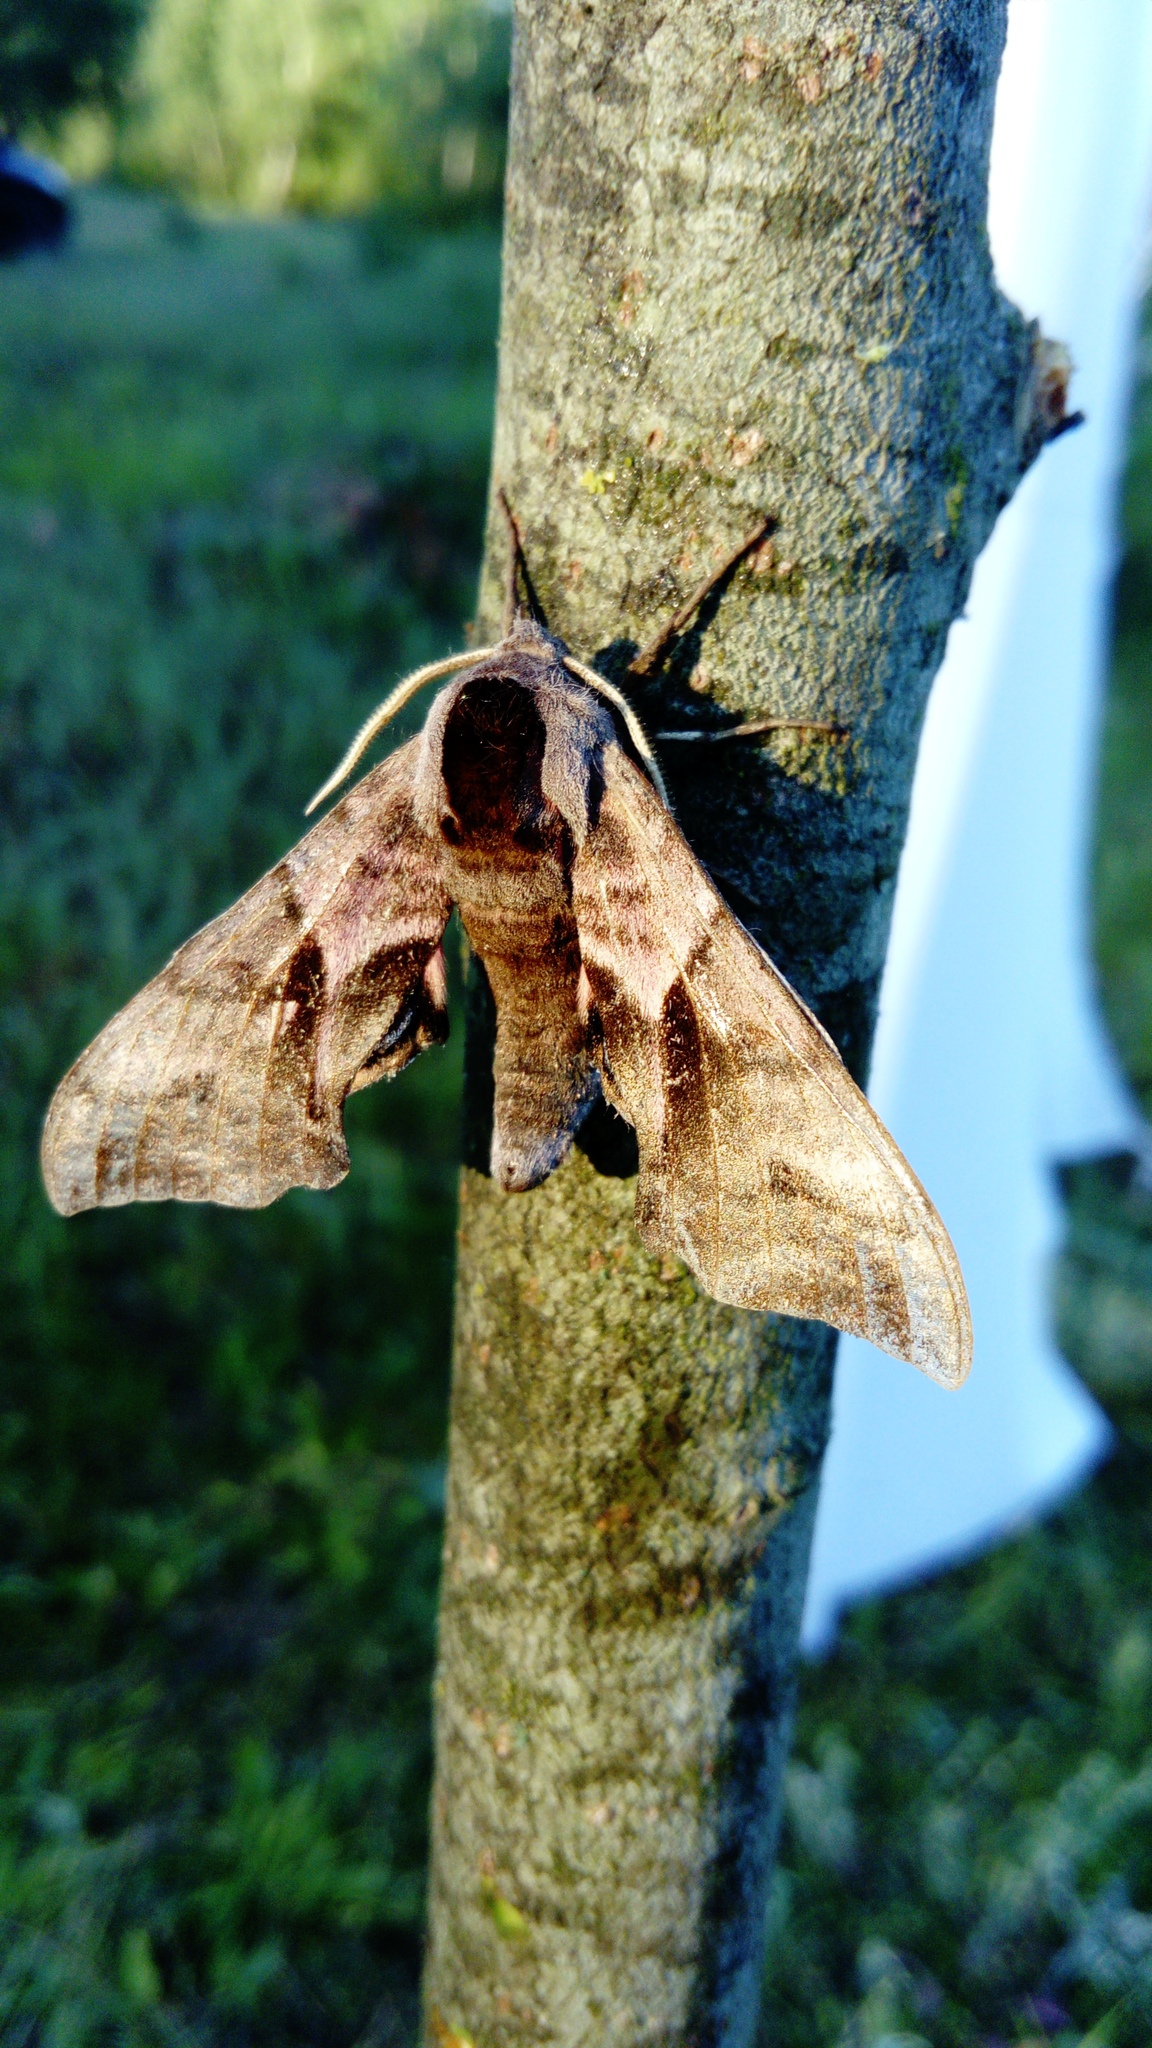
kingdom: Animalia
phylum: Arthropoda
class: Insecta
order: Lepidoptera
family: Sphingidae
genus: Smerinthus
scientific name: Smerinthus ocellata
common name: Eyed hawk-moth
